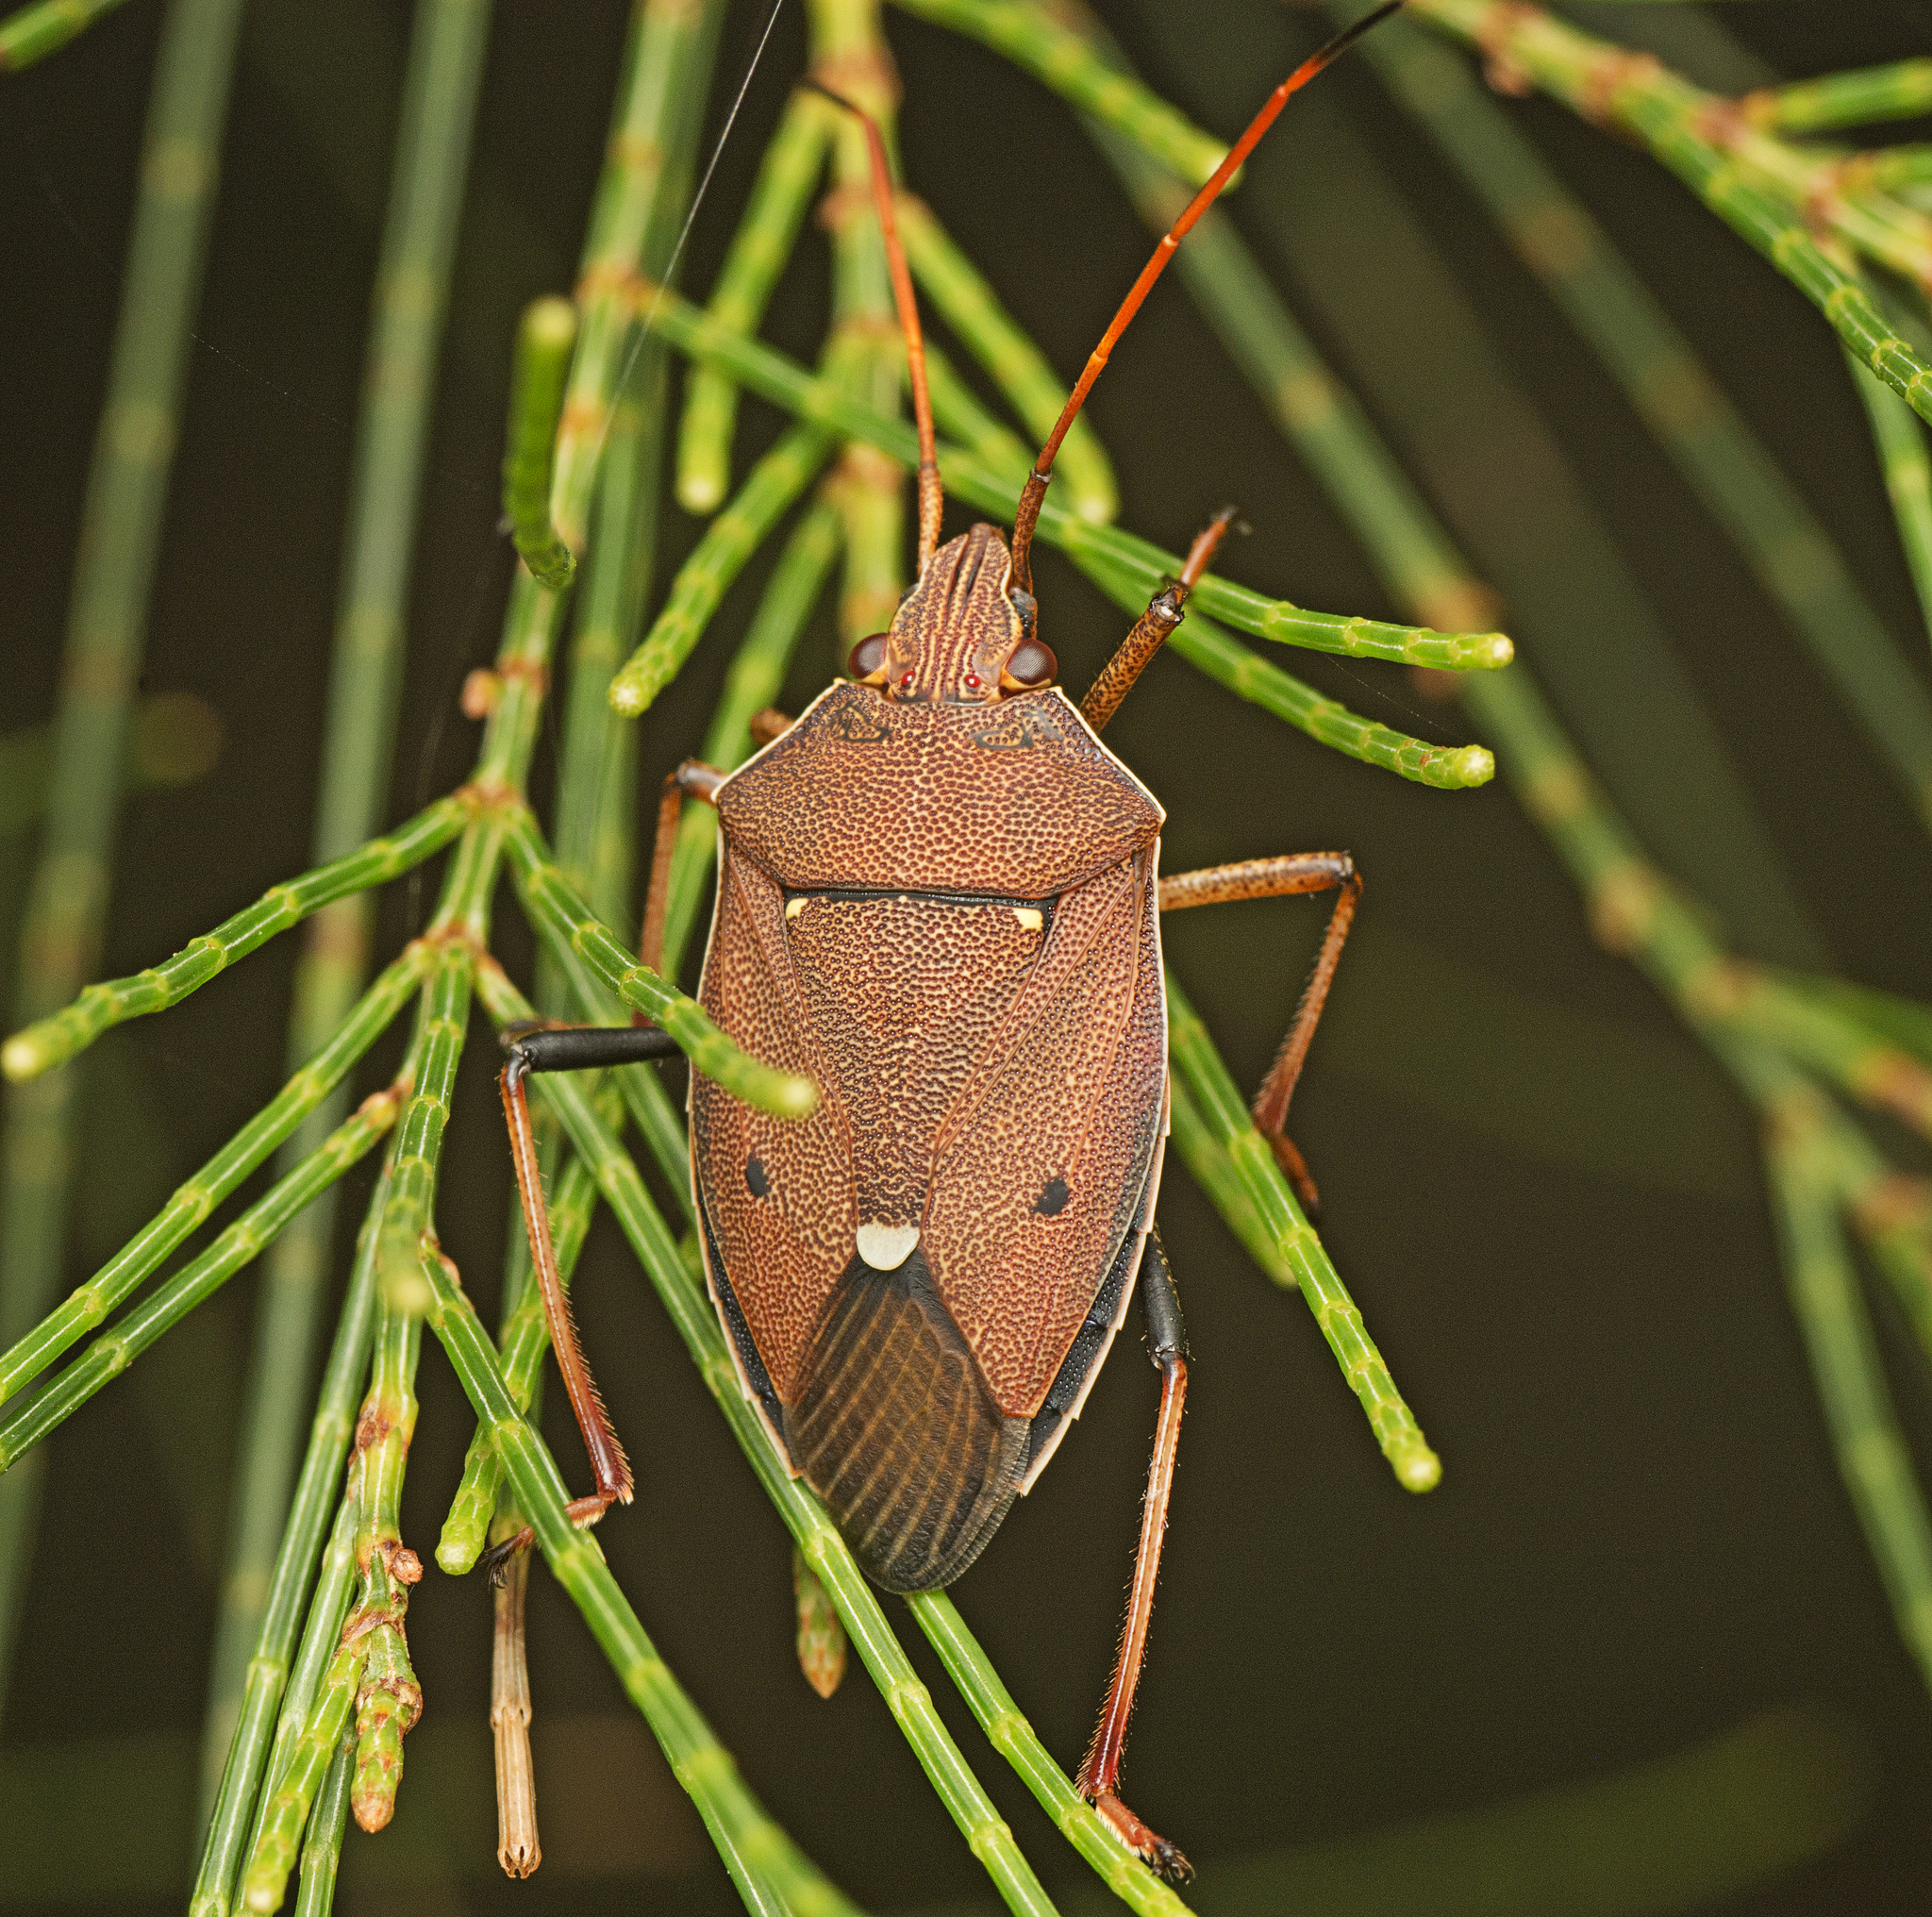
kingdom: Animalia
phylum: Arthropoda
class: Insecta
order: Hemiptera
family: Pentatomidae
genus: Poecilometis
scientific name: Poecilometis
